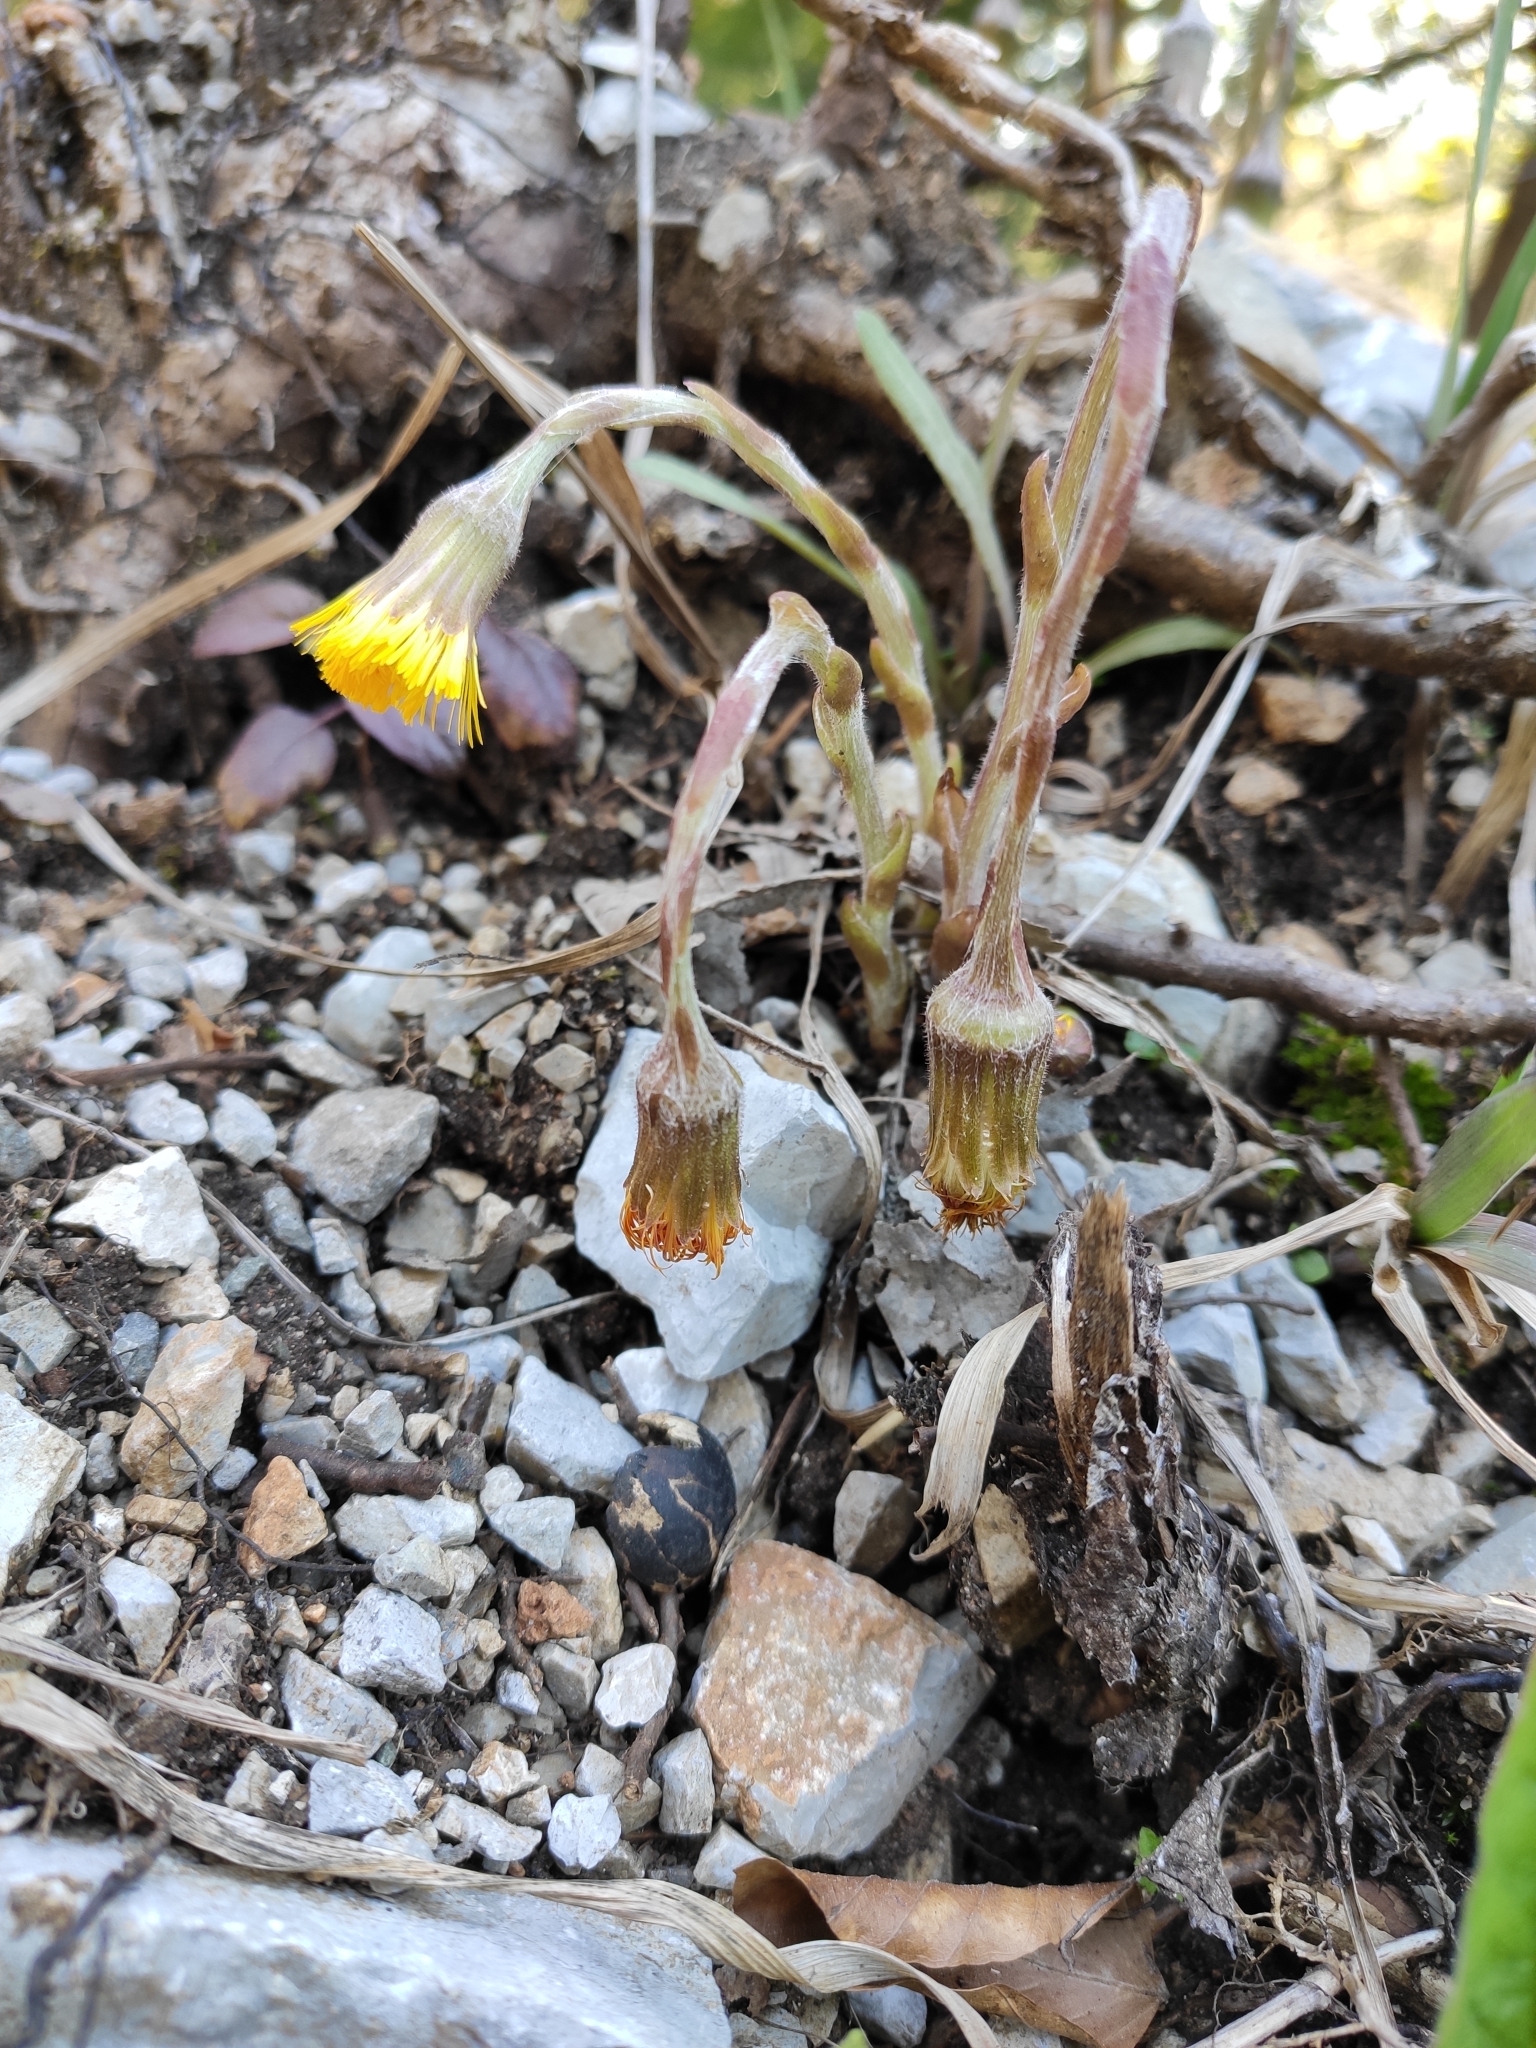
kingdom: Plantae
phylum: Tracheophyta
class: Magnoliopsida
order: Asterales
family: Asteraceae
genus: Tussilago
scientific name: Tussilago farfara
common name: Coltsfoot
